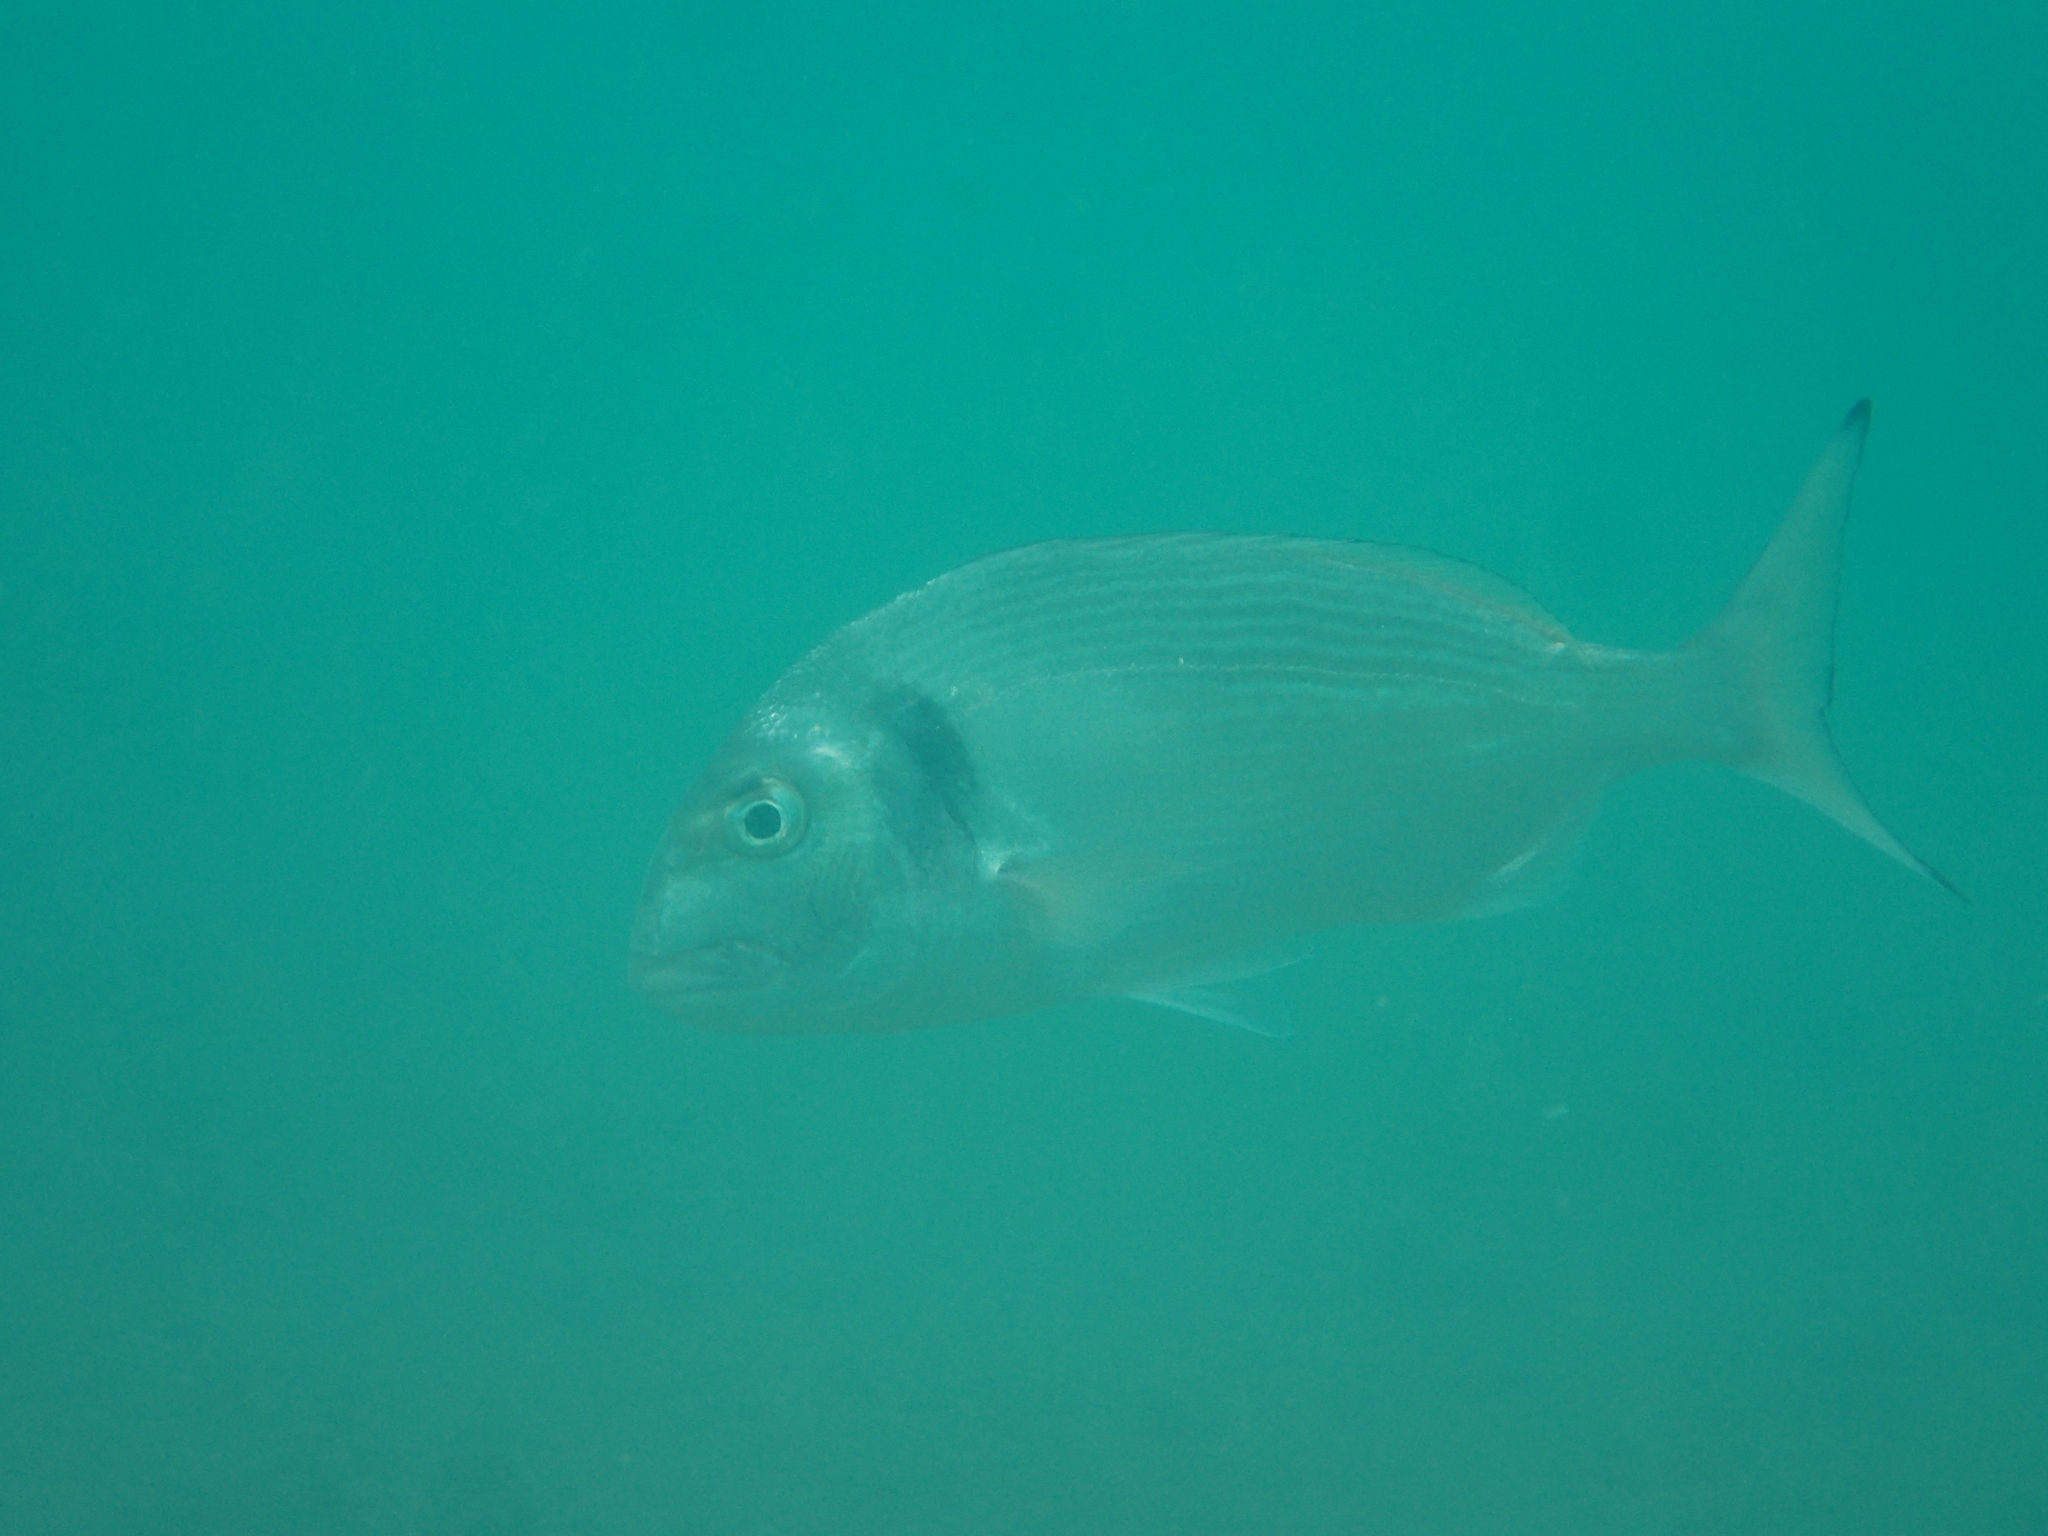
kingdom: Animalia
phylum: Chordata
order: Perciformes
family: Sparidae
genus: Sparus
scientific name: Sparus aurata
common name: Gilthead
